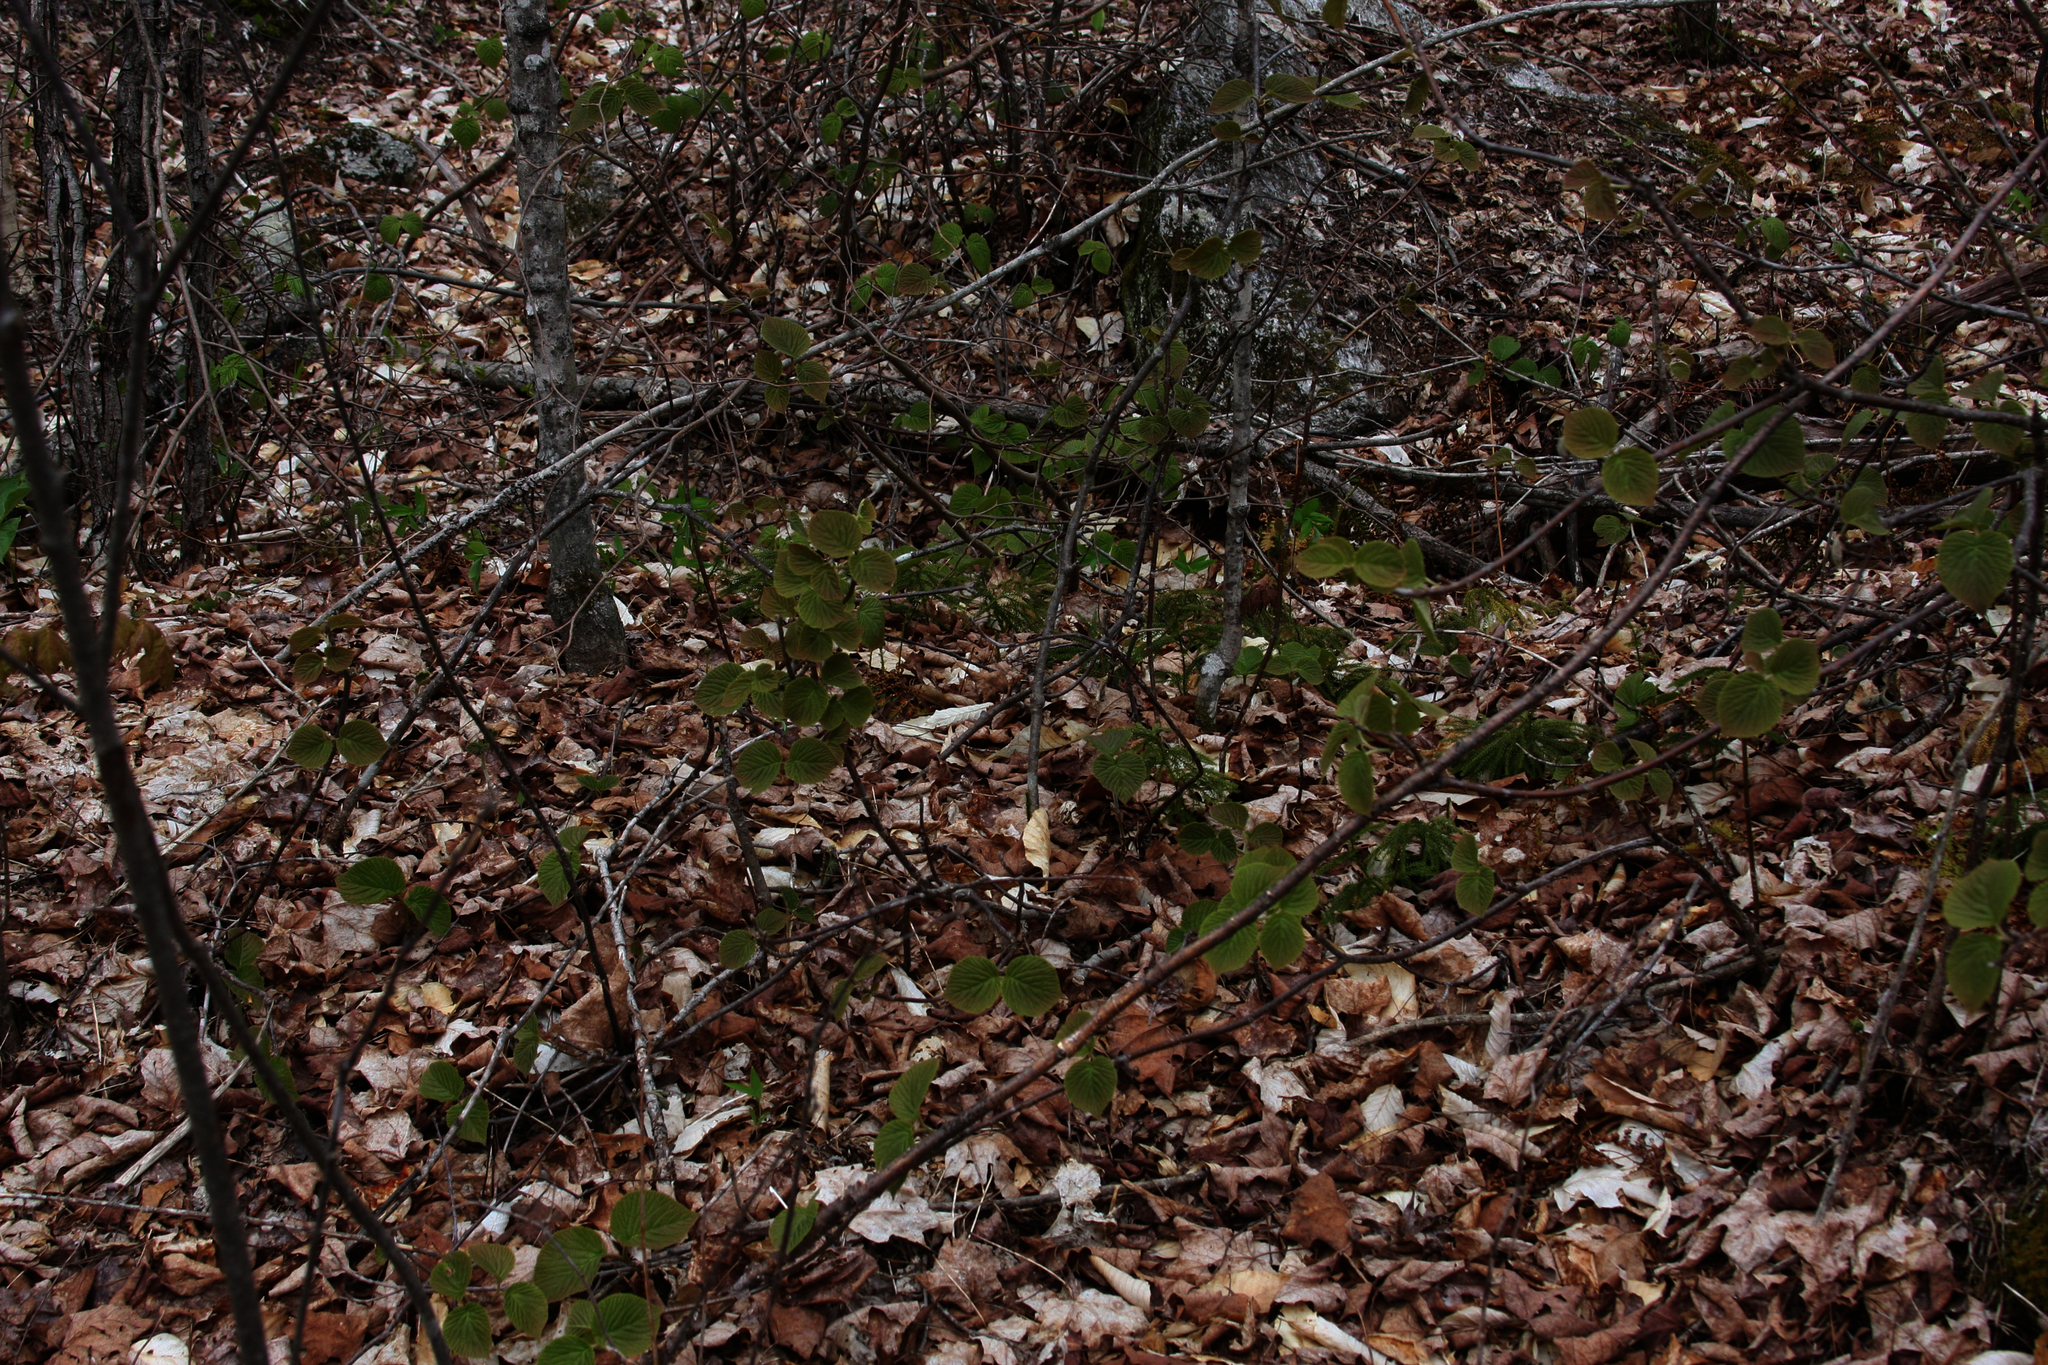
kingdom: Plantae
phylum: Tracheophyta
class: Magnoliopsida
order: Dipsacales
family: Viburnaceae
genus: Viburnum
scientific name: Viburnum lantanoides
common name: Hobblebush
